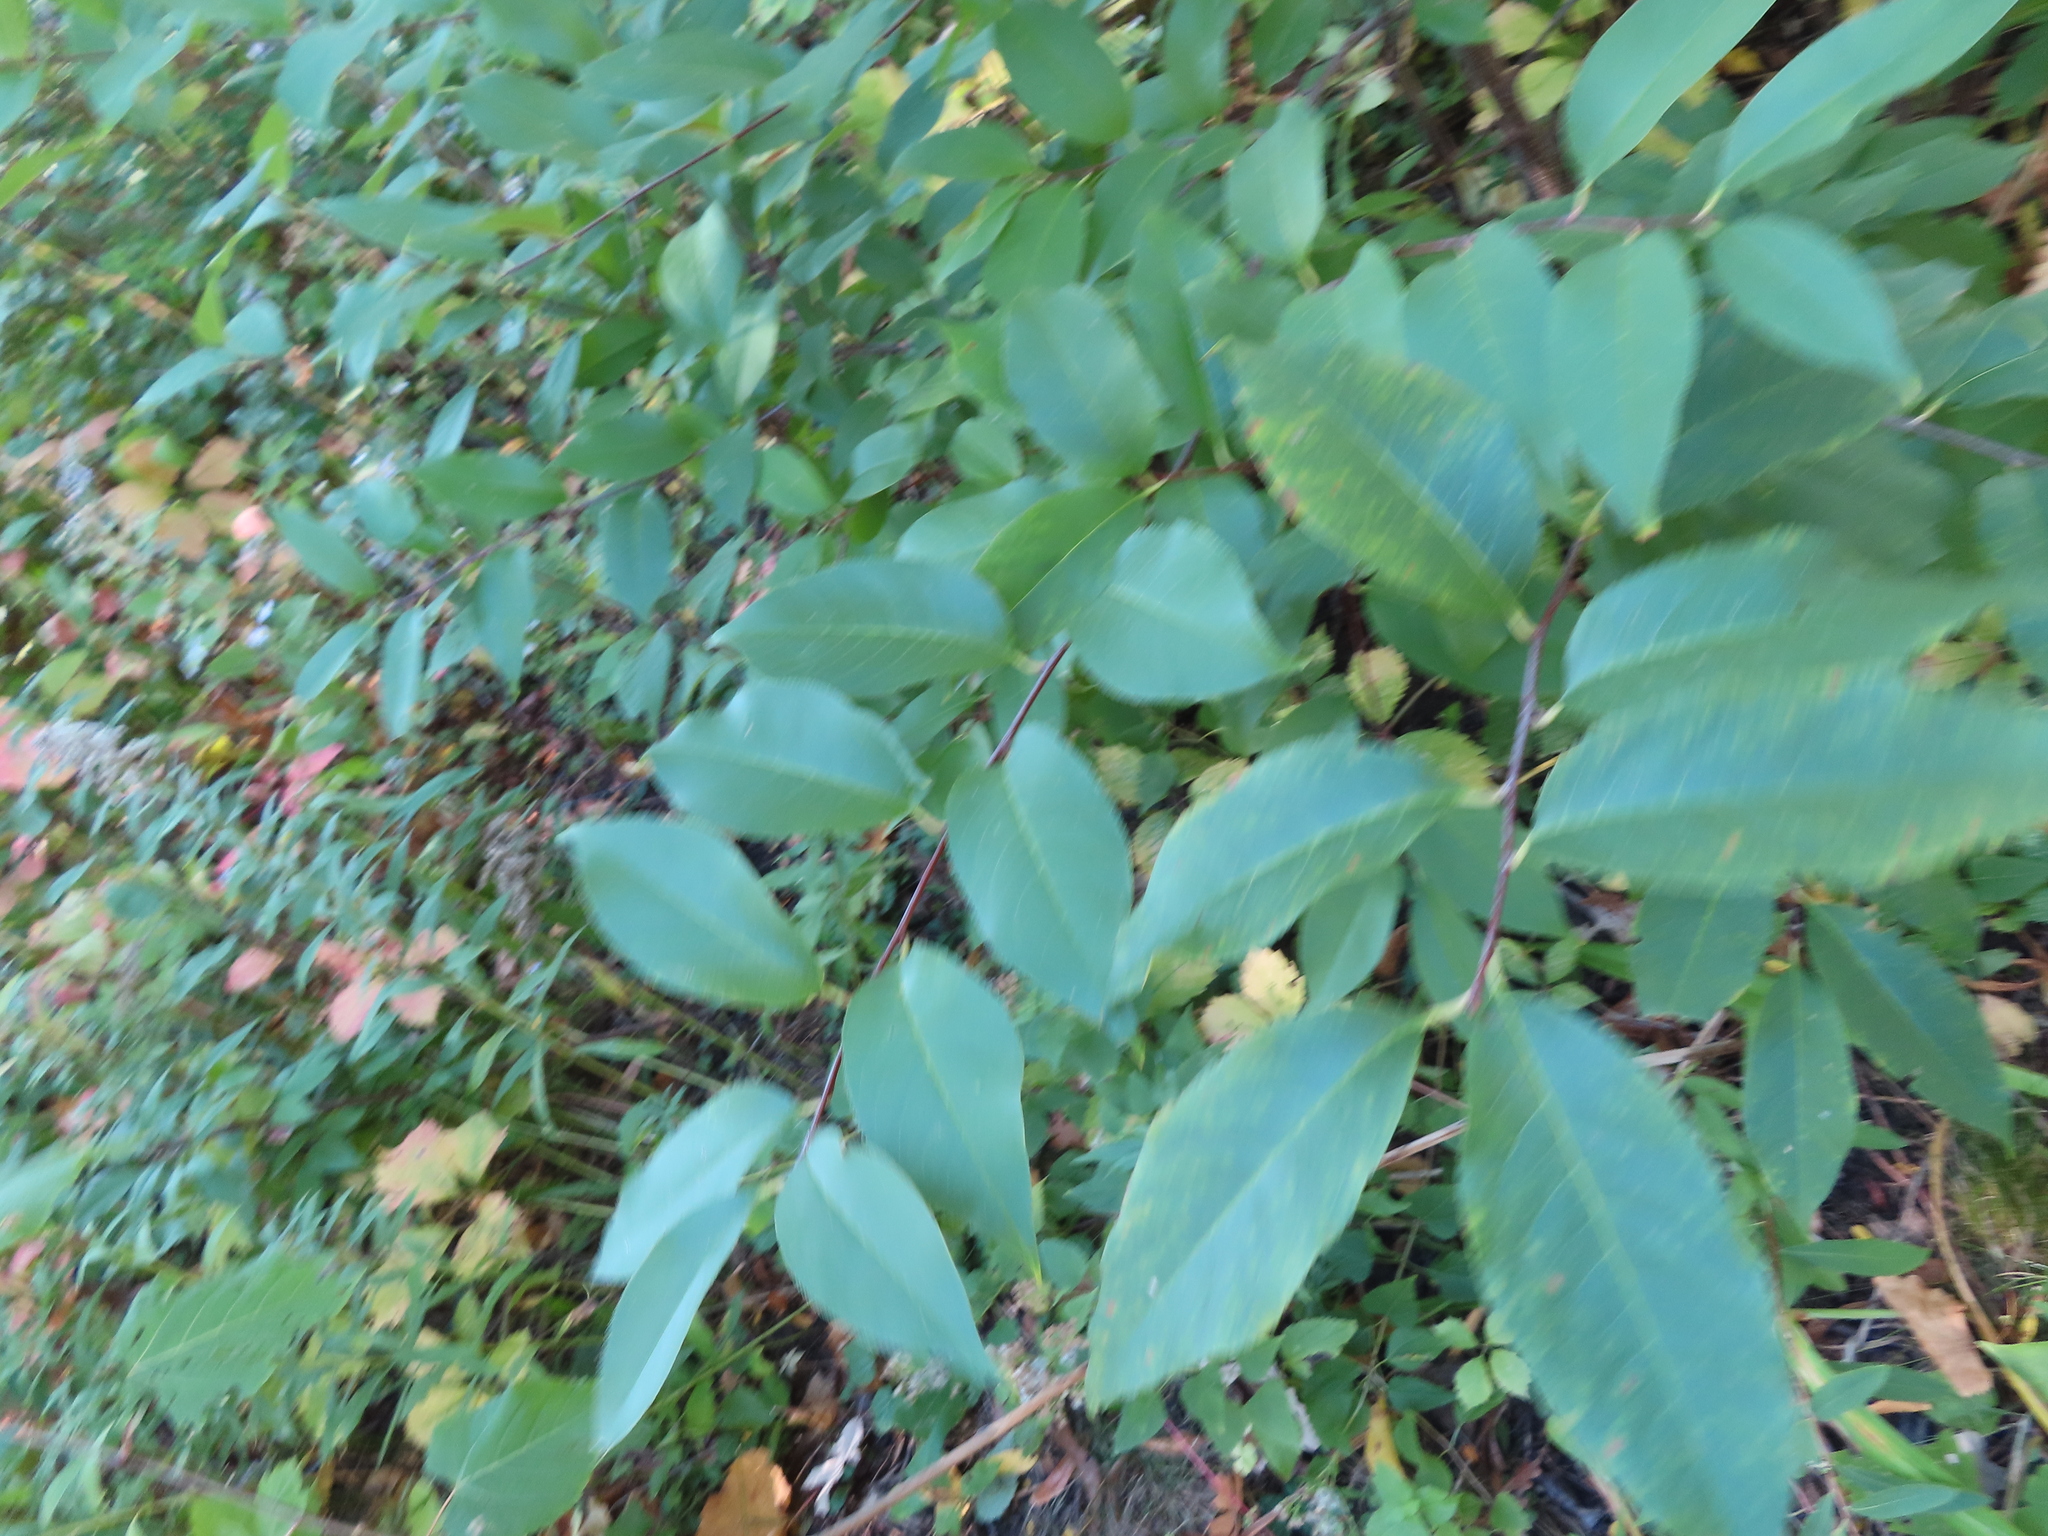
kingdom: Plantae
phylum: Tracheophyta
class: Magnoliopsida
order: Rosales
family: Rosaceae
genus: Prunus
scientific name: Prunus serotina
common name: Black cherry
